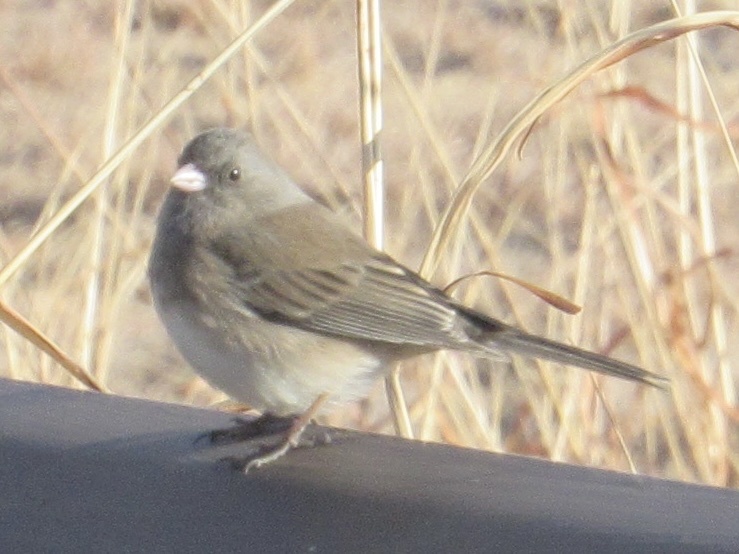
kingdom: Animalia
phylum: Chordata
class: Aves
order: Passeriformes
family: Passerellidae
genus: Junco
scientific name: Junco hyemalis
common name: Dark-eyed junco
